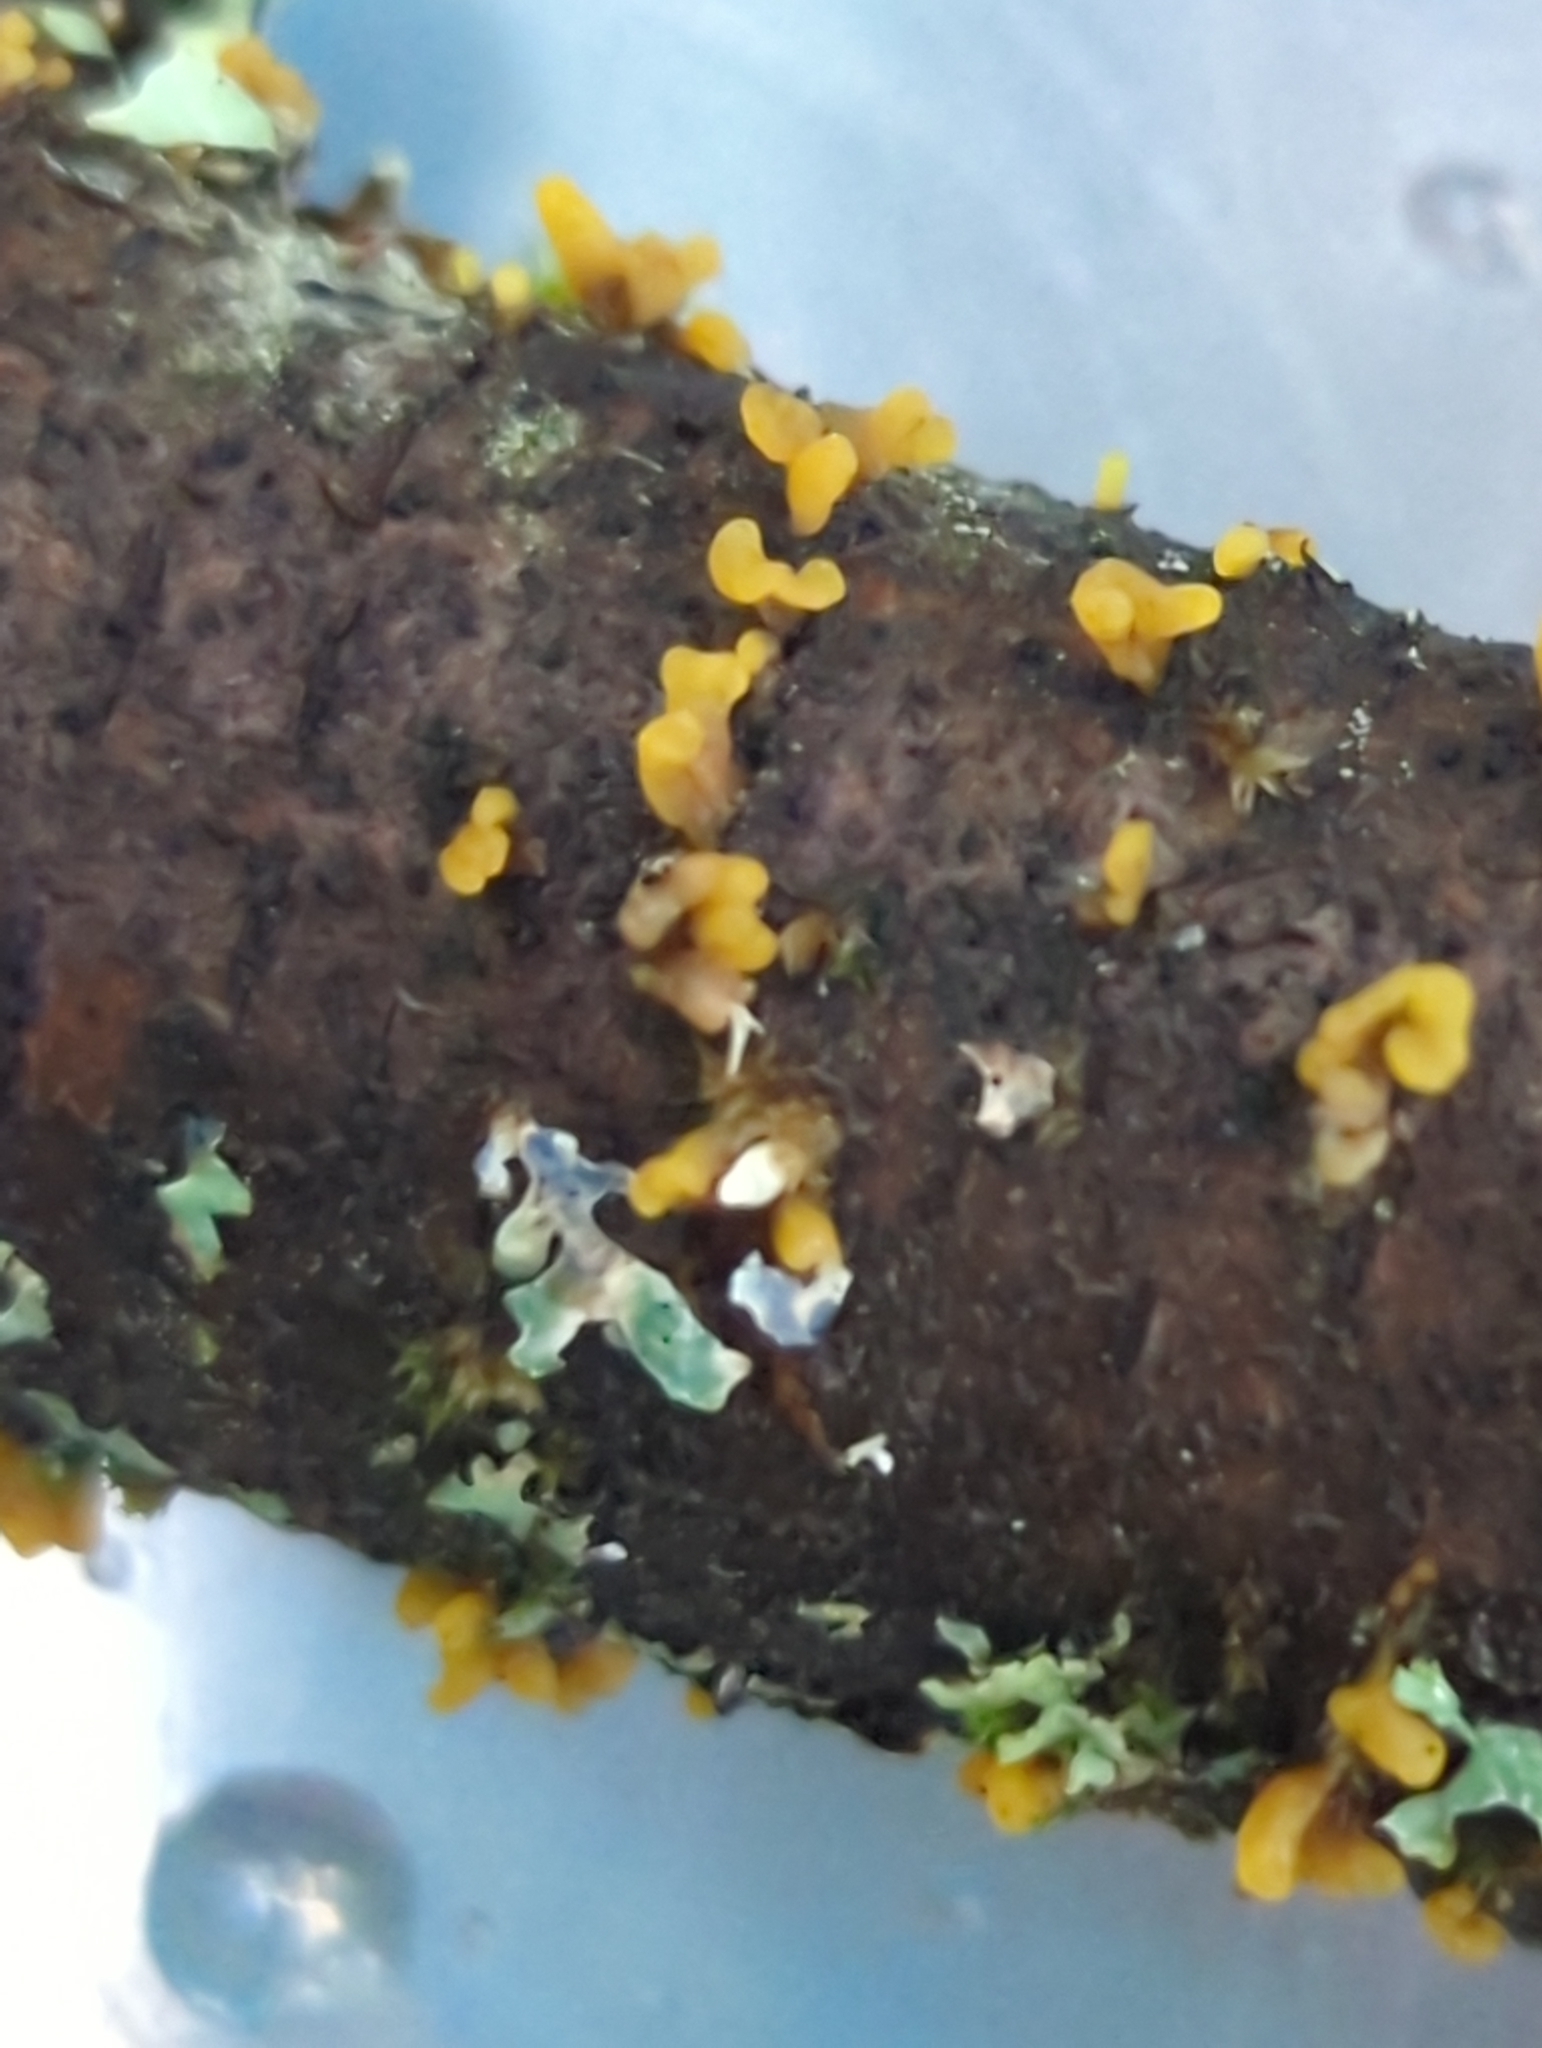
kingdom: Fungi
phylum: Basidiomycota
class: Dacrymycetes
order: Dacrymycetales
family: Dacrymycetaceae
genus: Dacrymyces
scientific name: Dacrymyces spathularius
